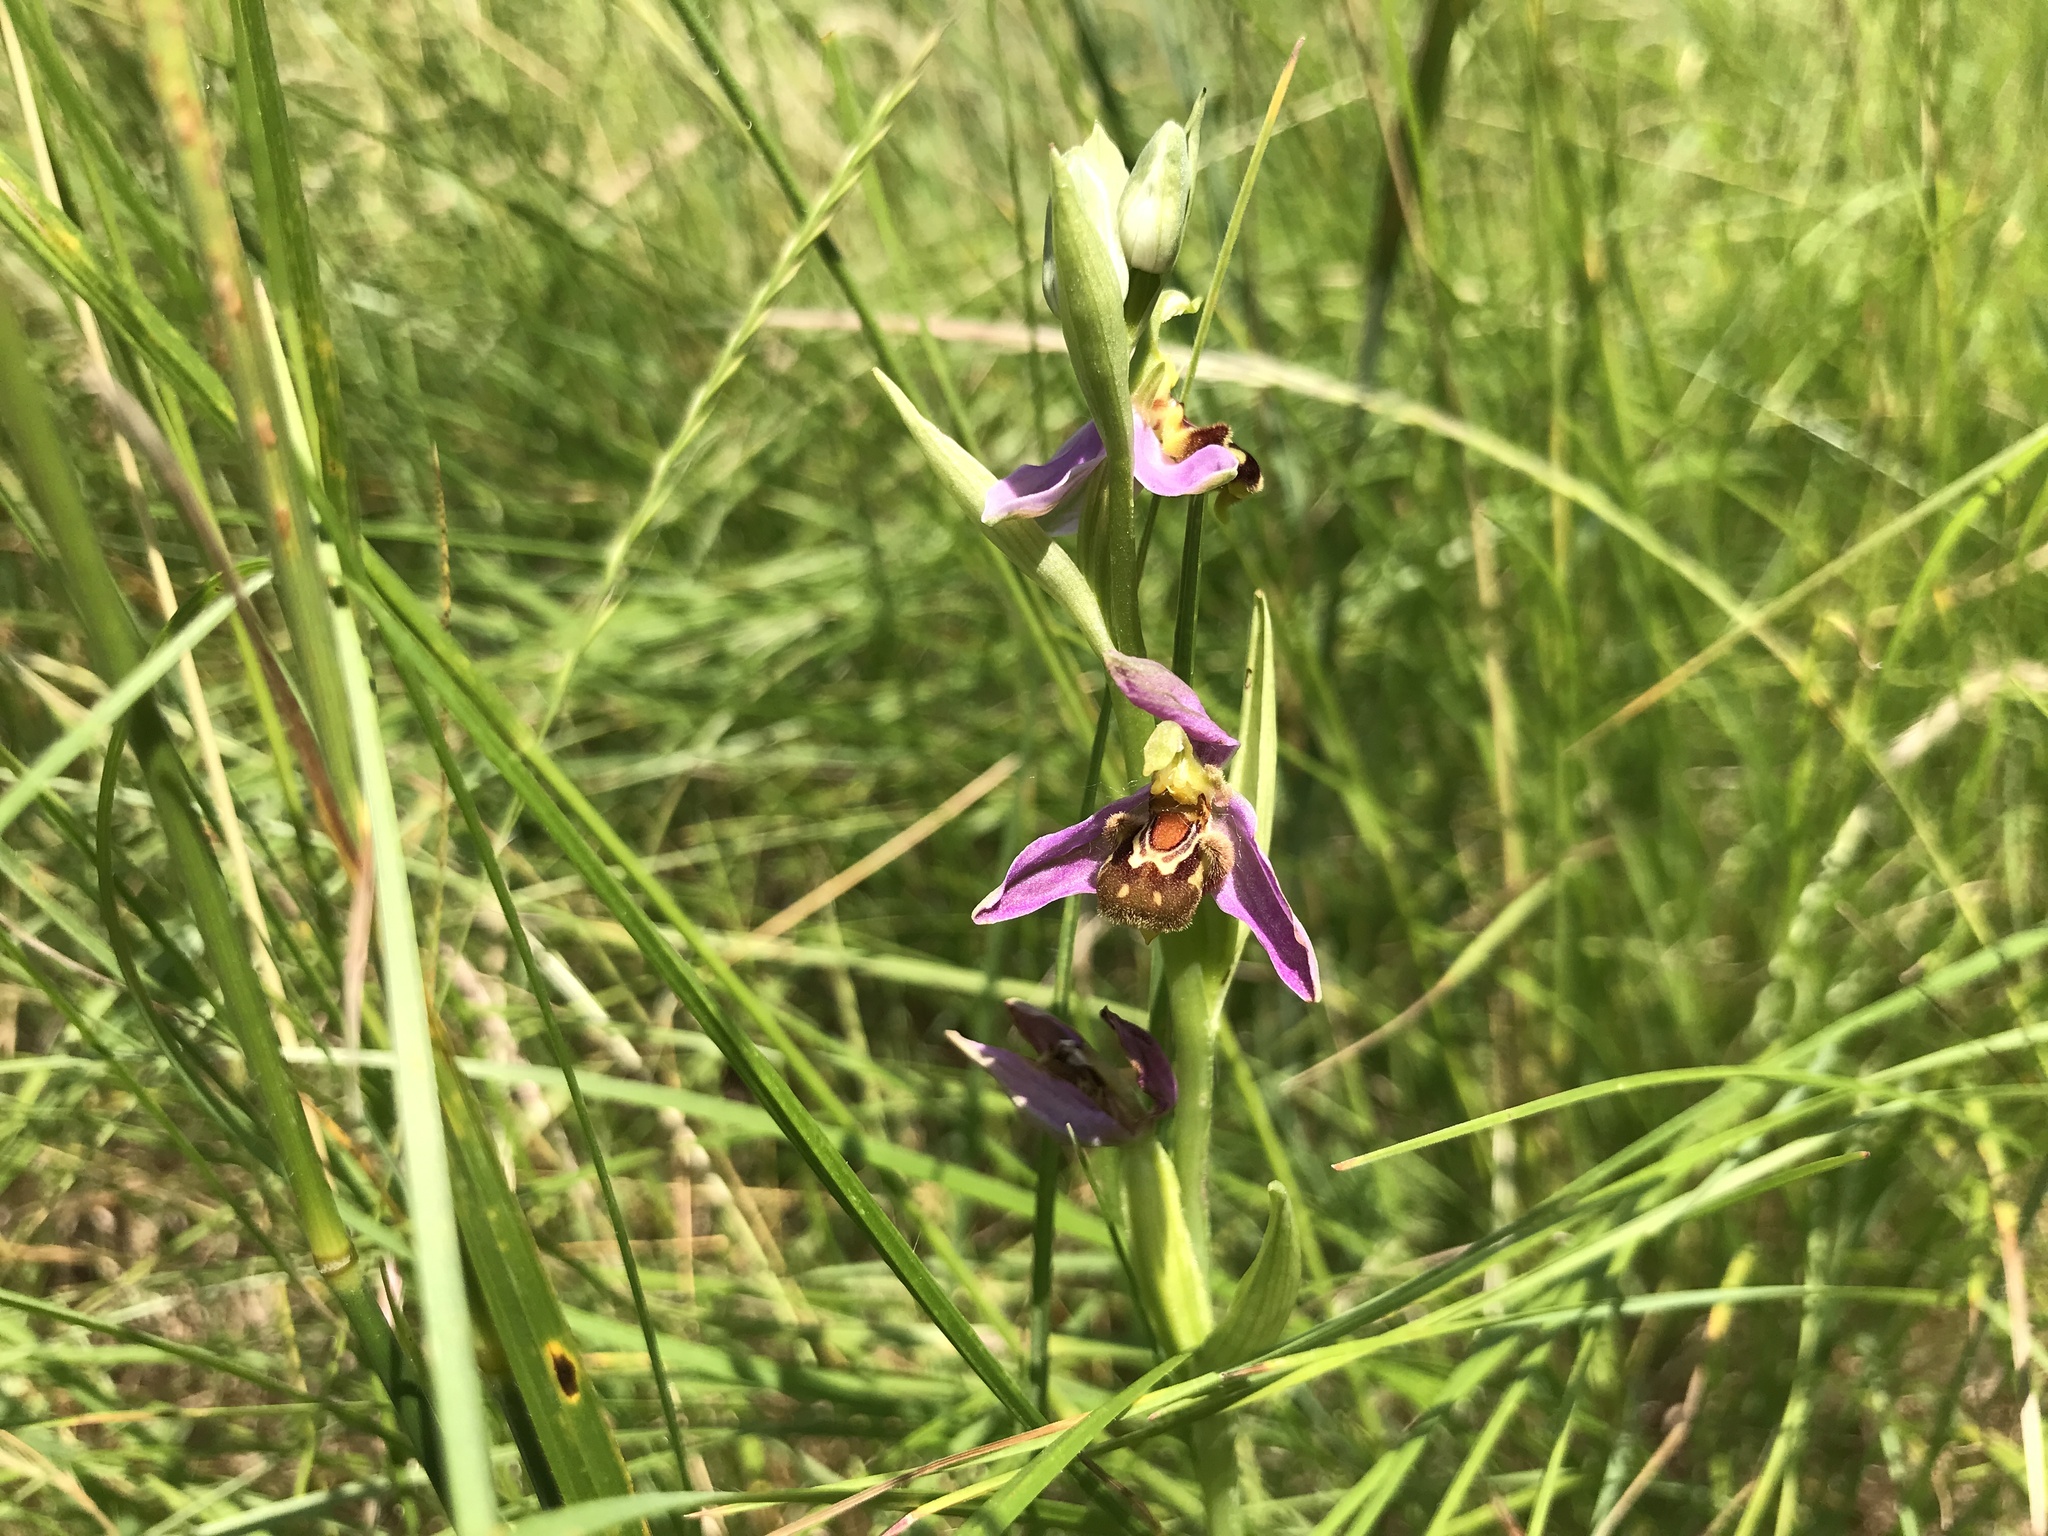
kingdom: Plantae
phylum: Tracheophyta
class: Liliopsida
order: Asparagales
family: Orchidaceae
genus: Ophrys
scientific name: Ophrys apifera
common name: Bee orchid
